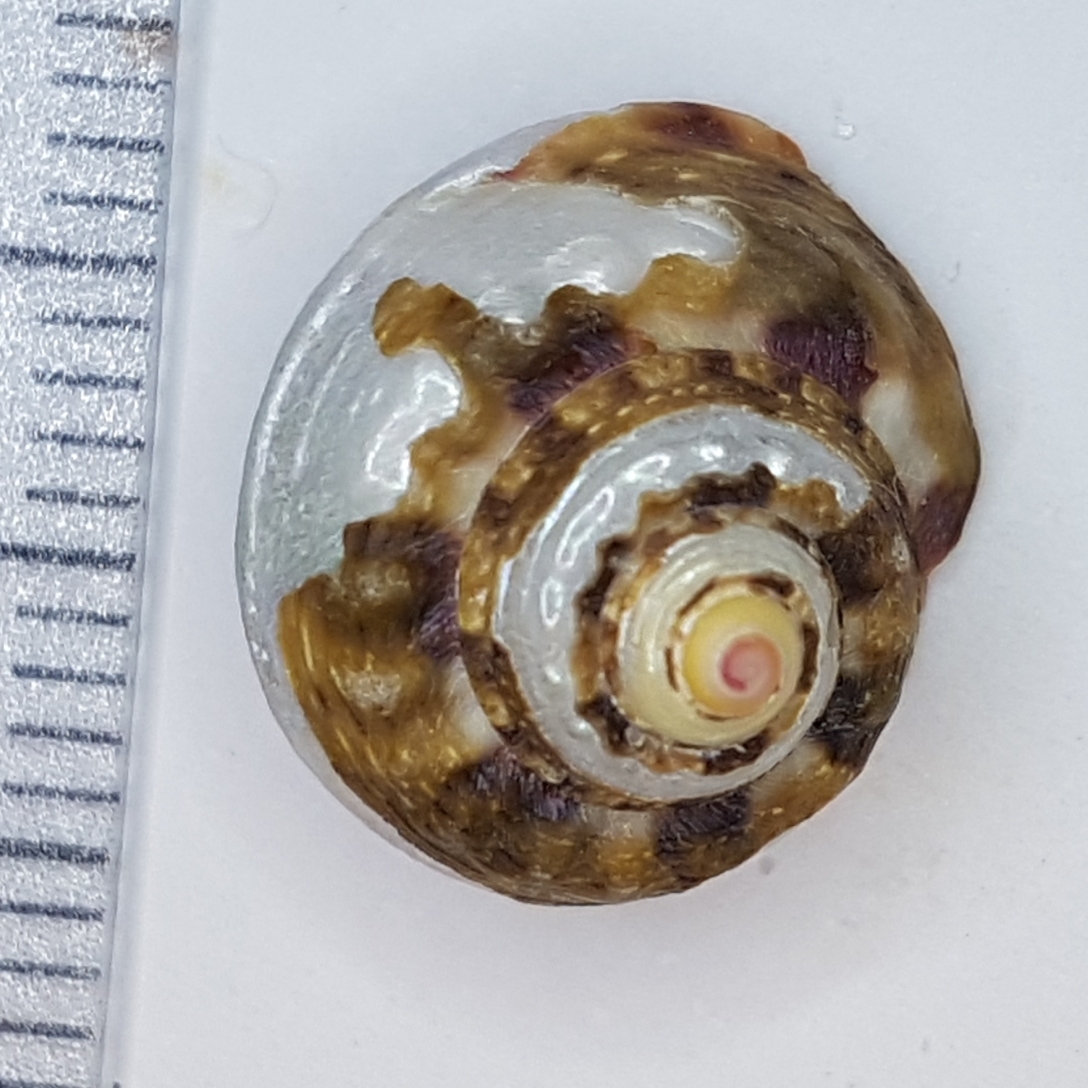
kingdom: Animalia
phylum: Mollusca
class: Gastropoda
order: Trochida
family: Trochidae
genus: Gibbula
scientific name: Gibbula magus
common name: Turban top shell
